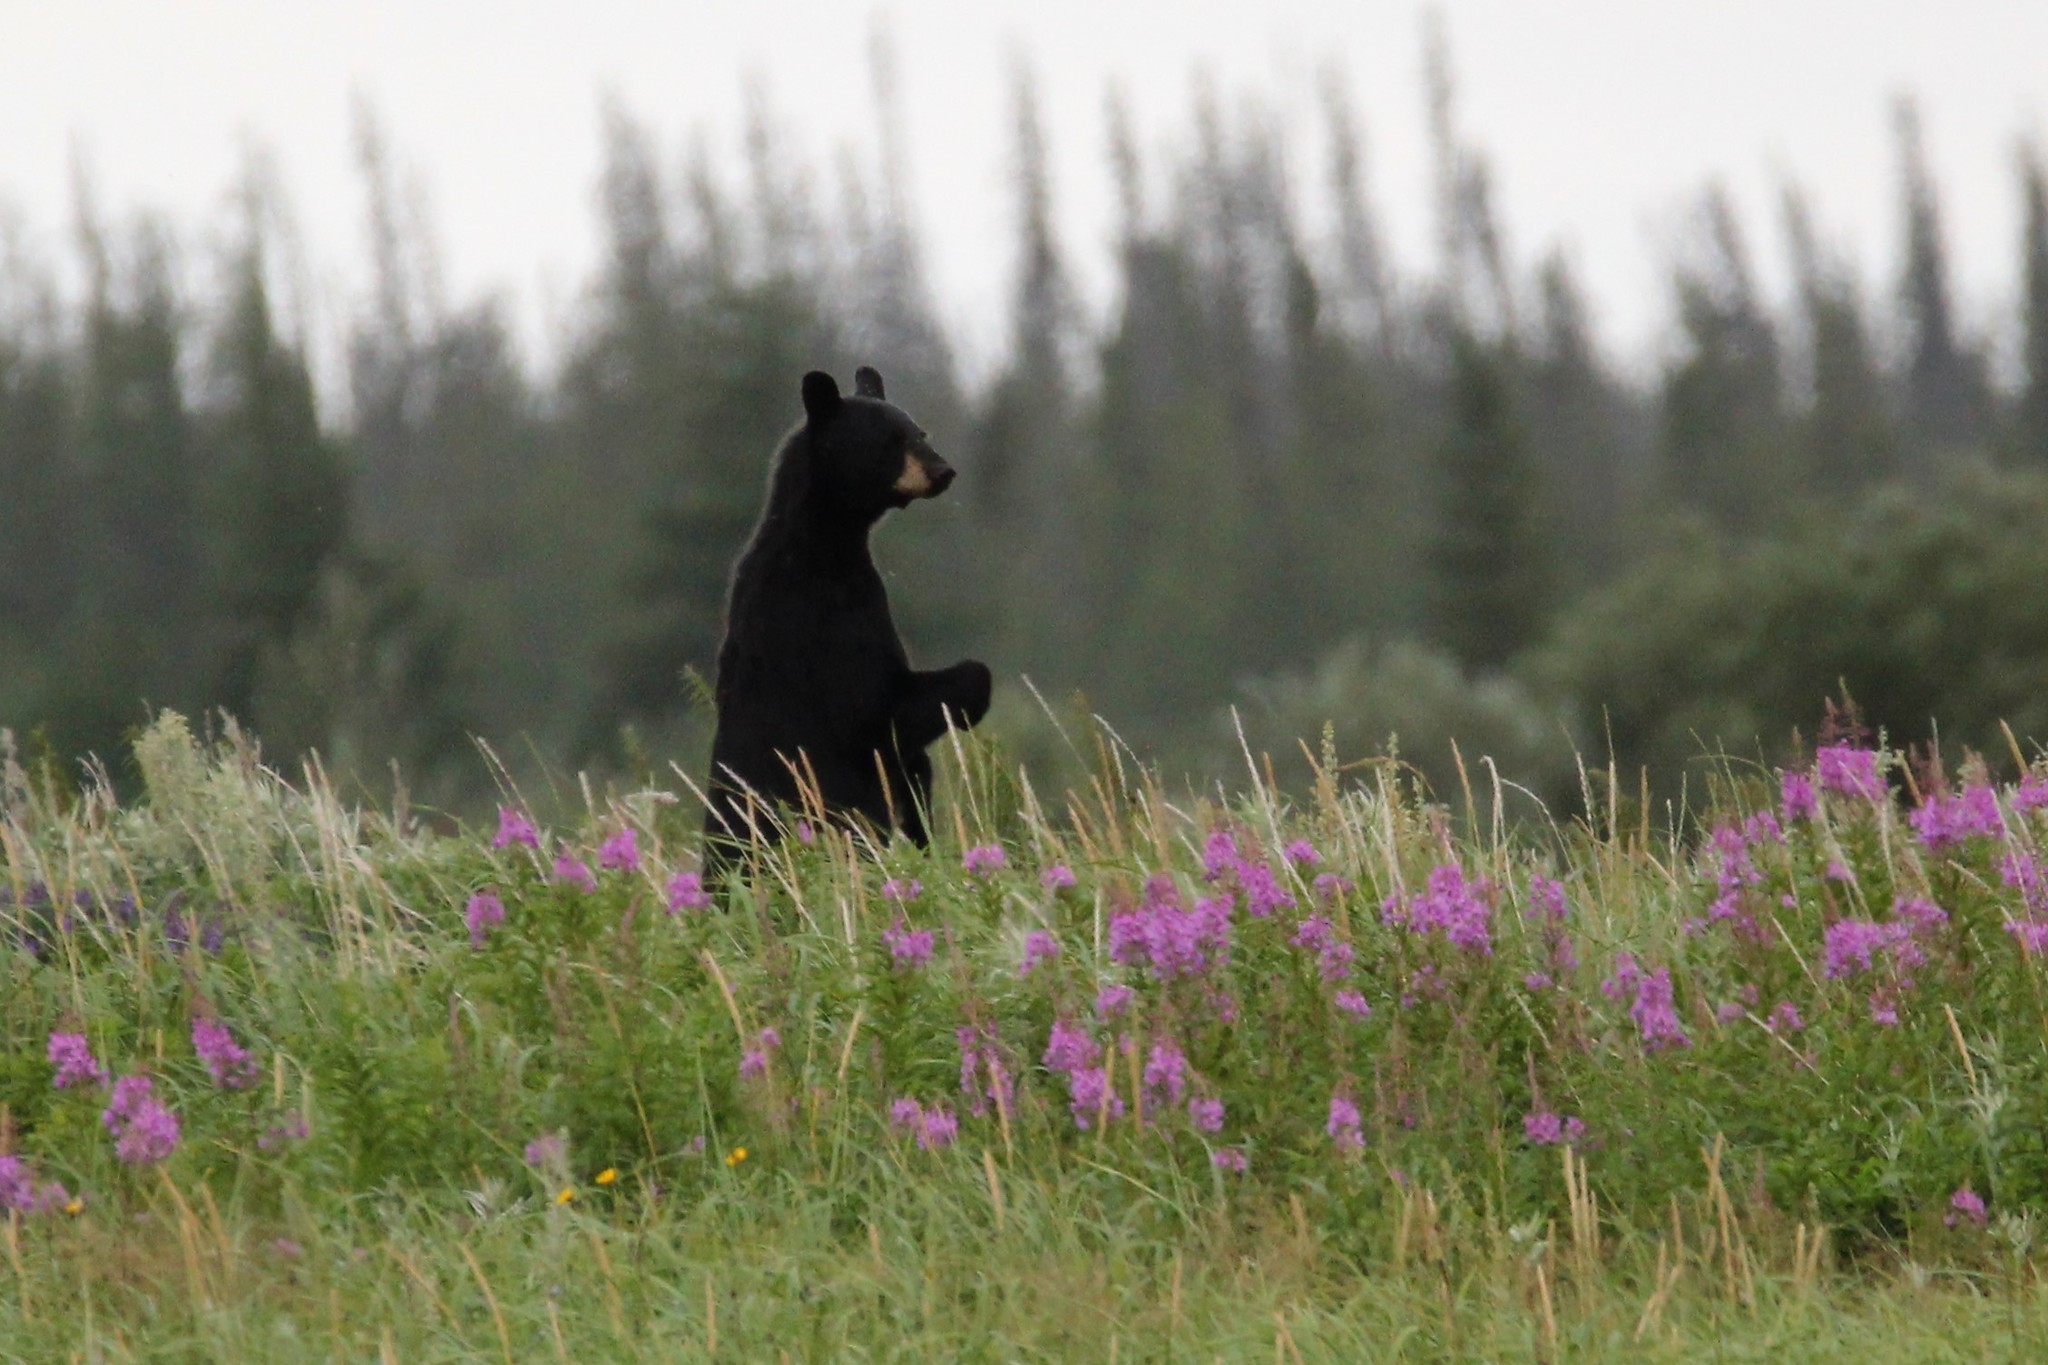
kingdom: Animalia
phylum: Chordata
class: Mammalia
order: Carnivora
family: Ursidae
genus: Ursus
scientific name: Ursus americanus
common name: American black bear
